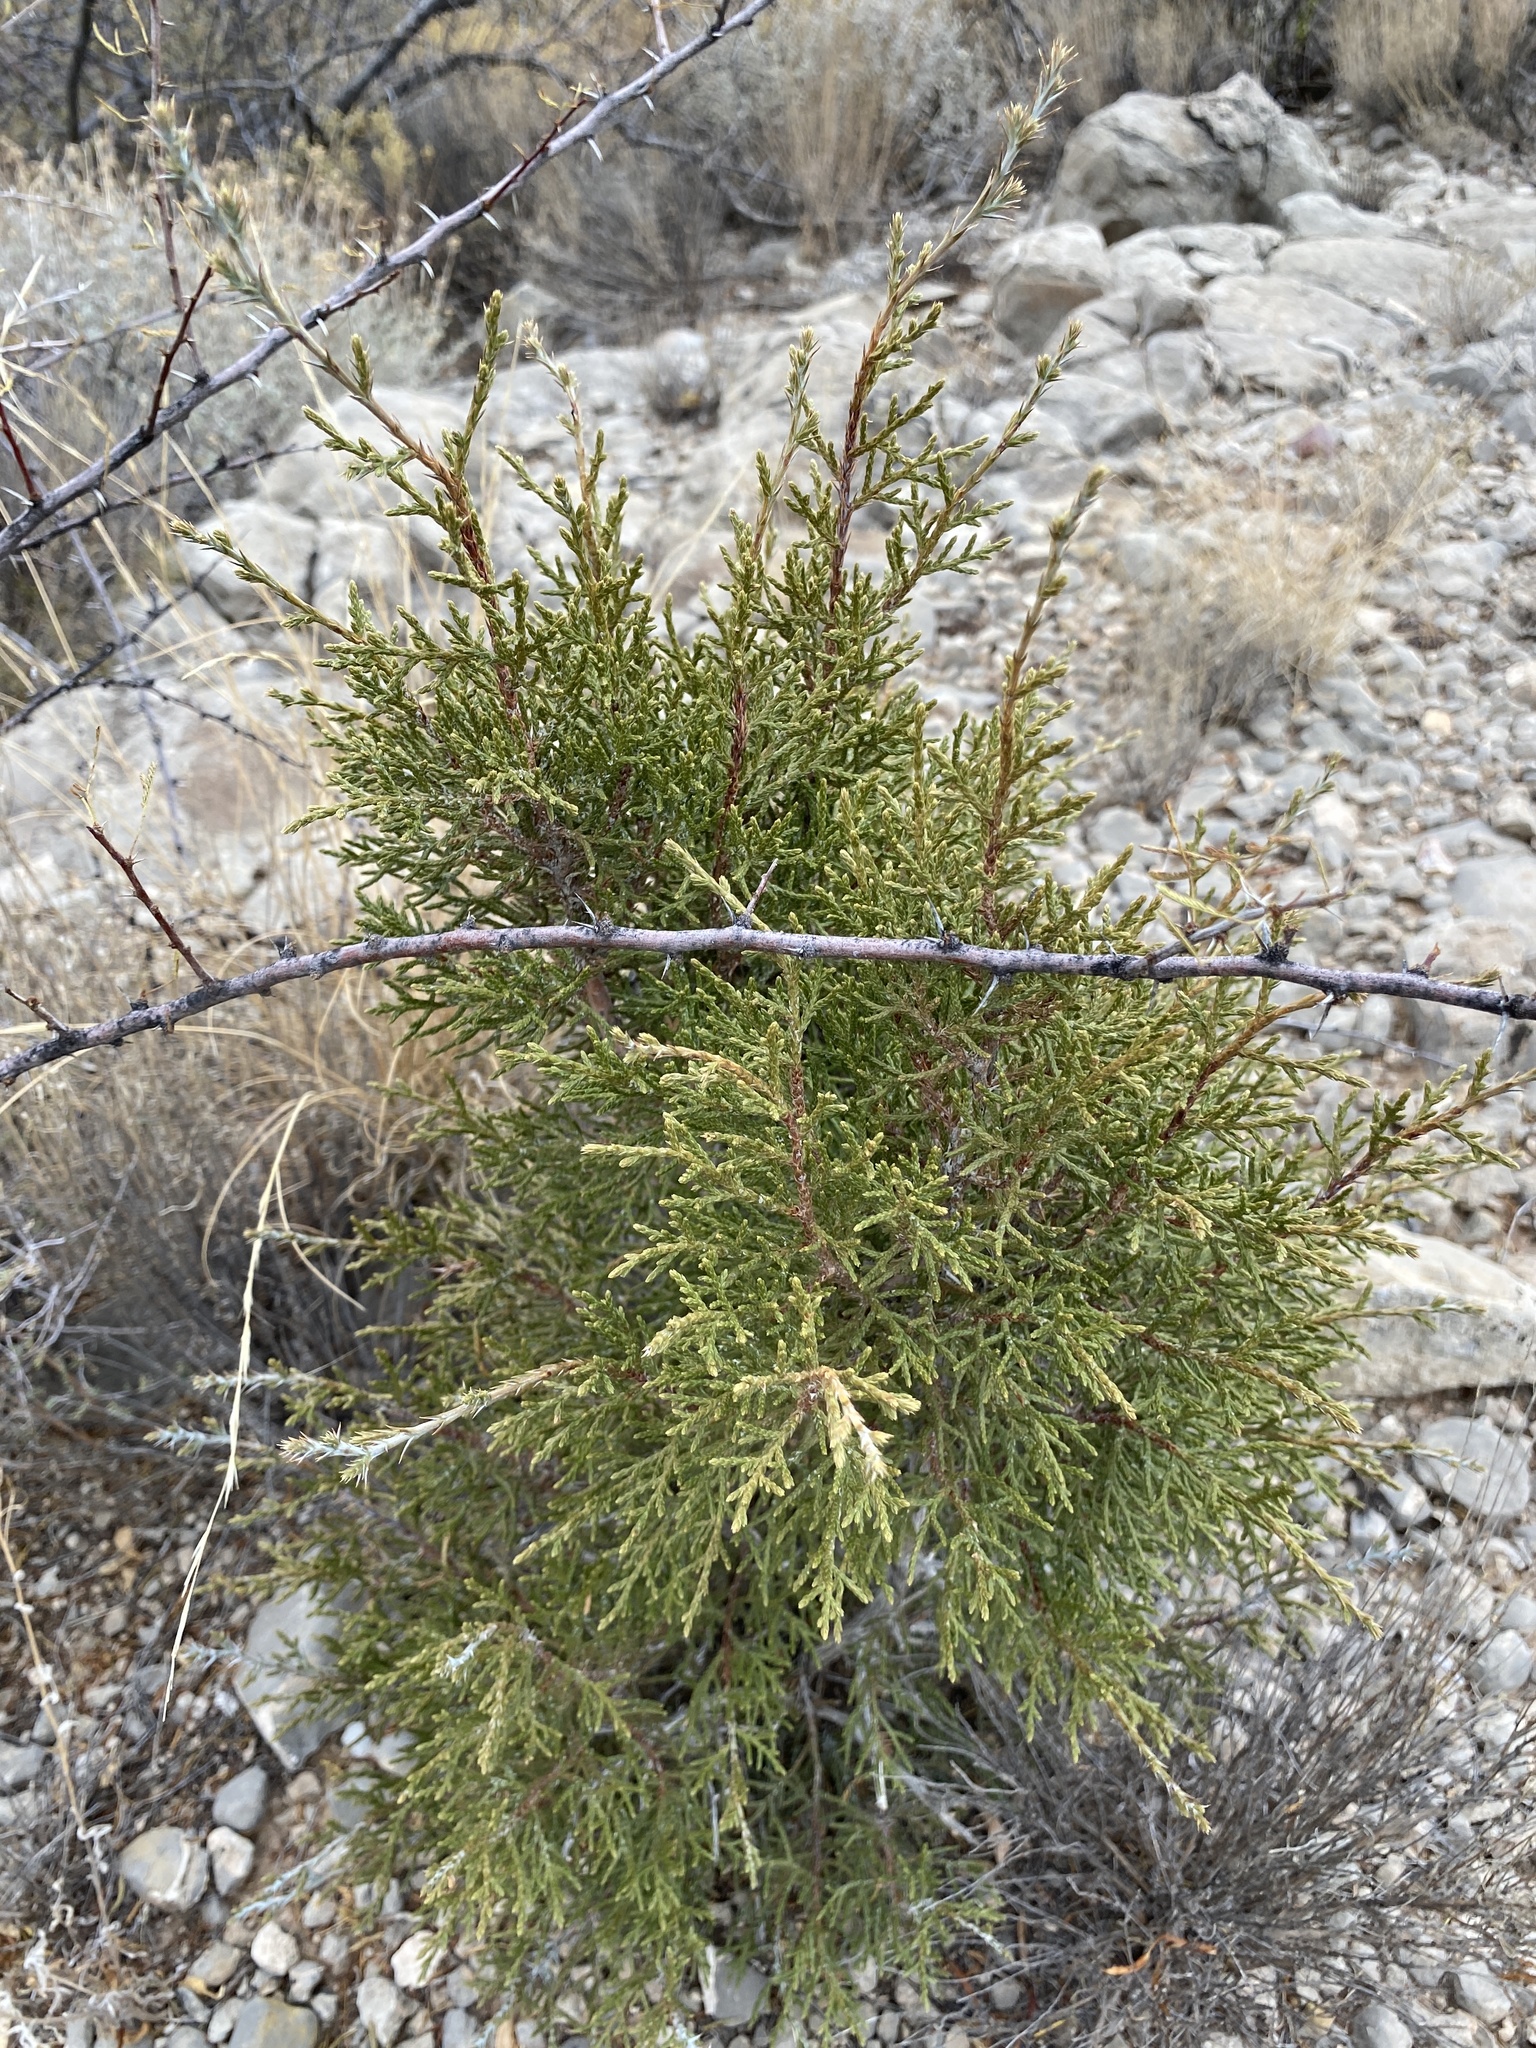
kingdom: Plantae
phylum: Tracheophyta
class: Pinopsida
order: Pinales
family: Cupressaceae
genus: Juniperus
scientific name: Juniperus monosperma
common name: One-seed juniper
